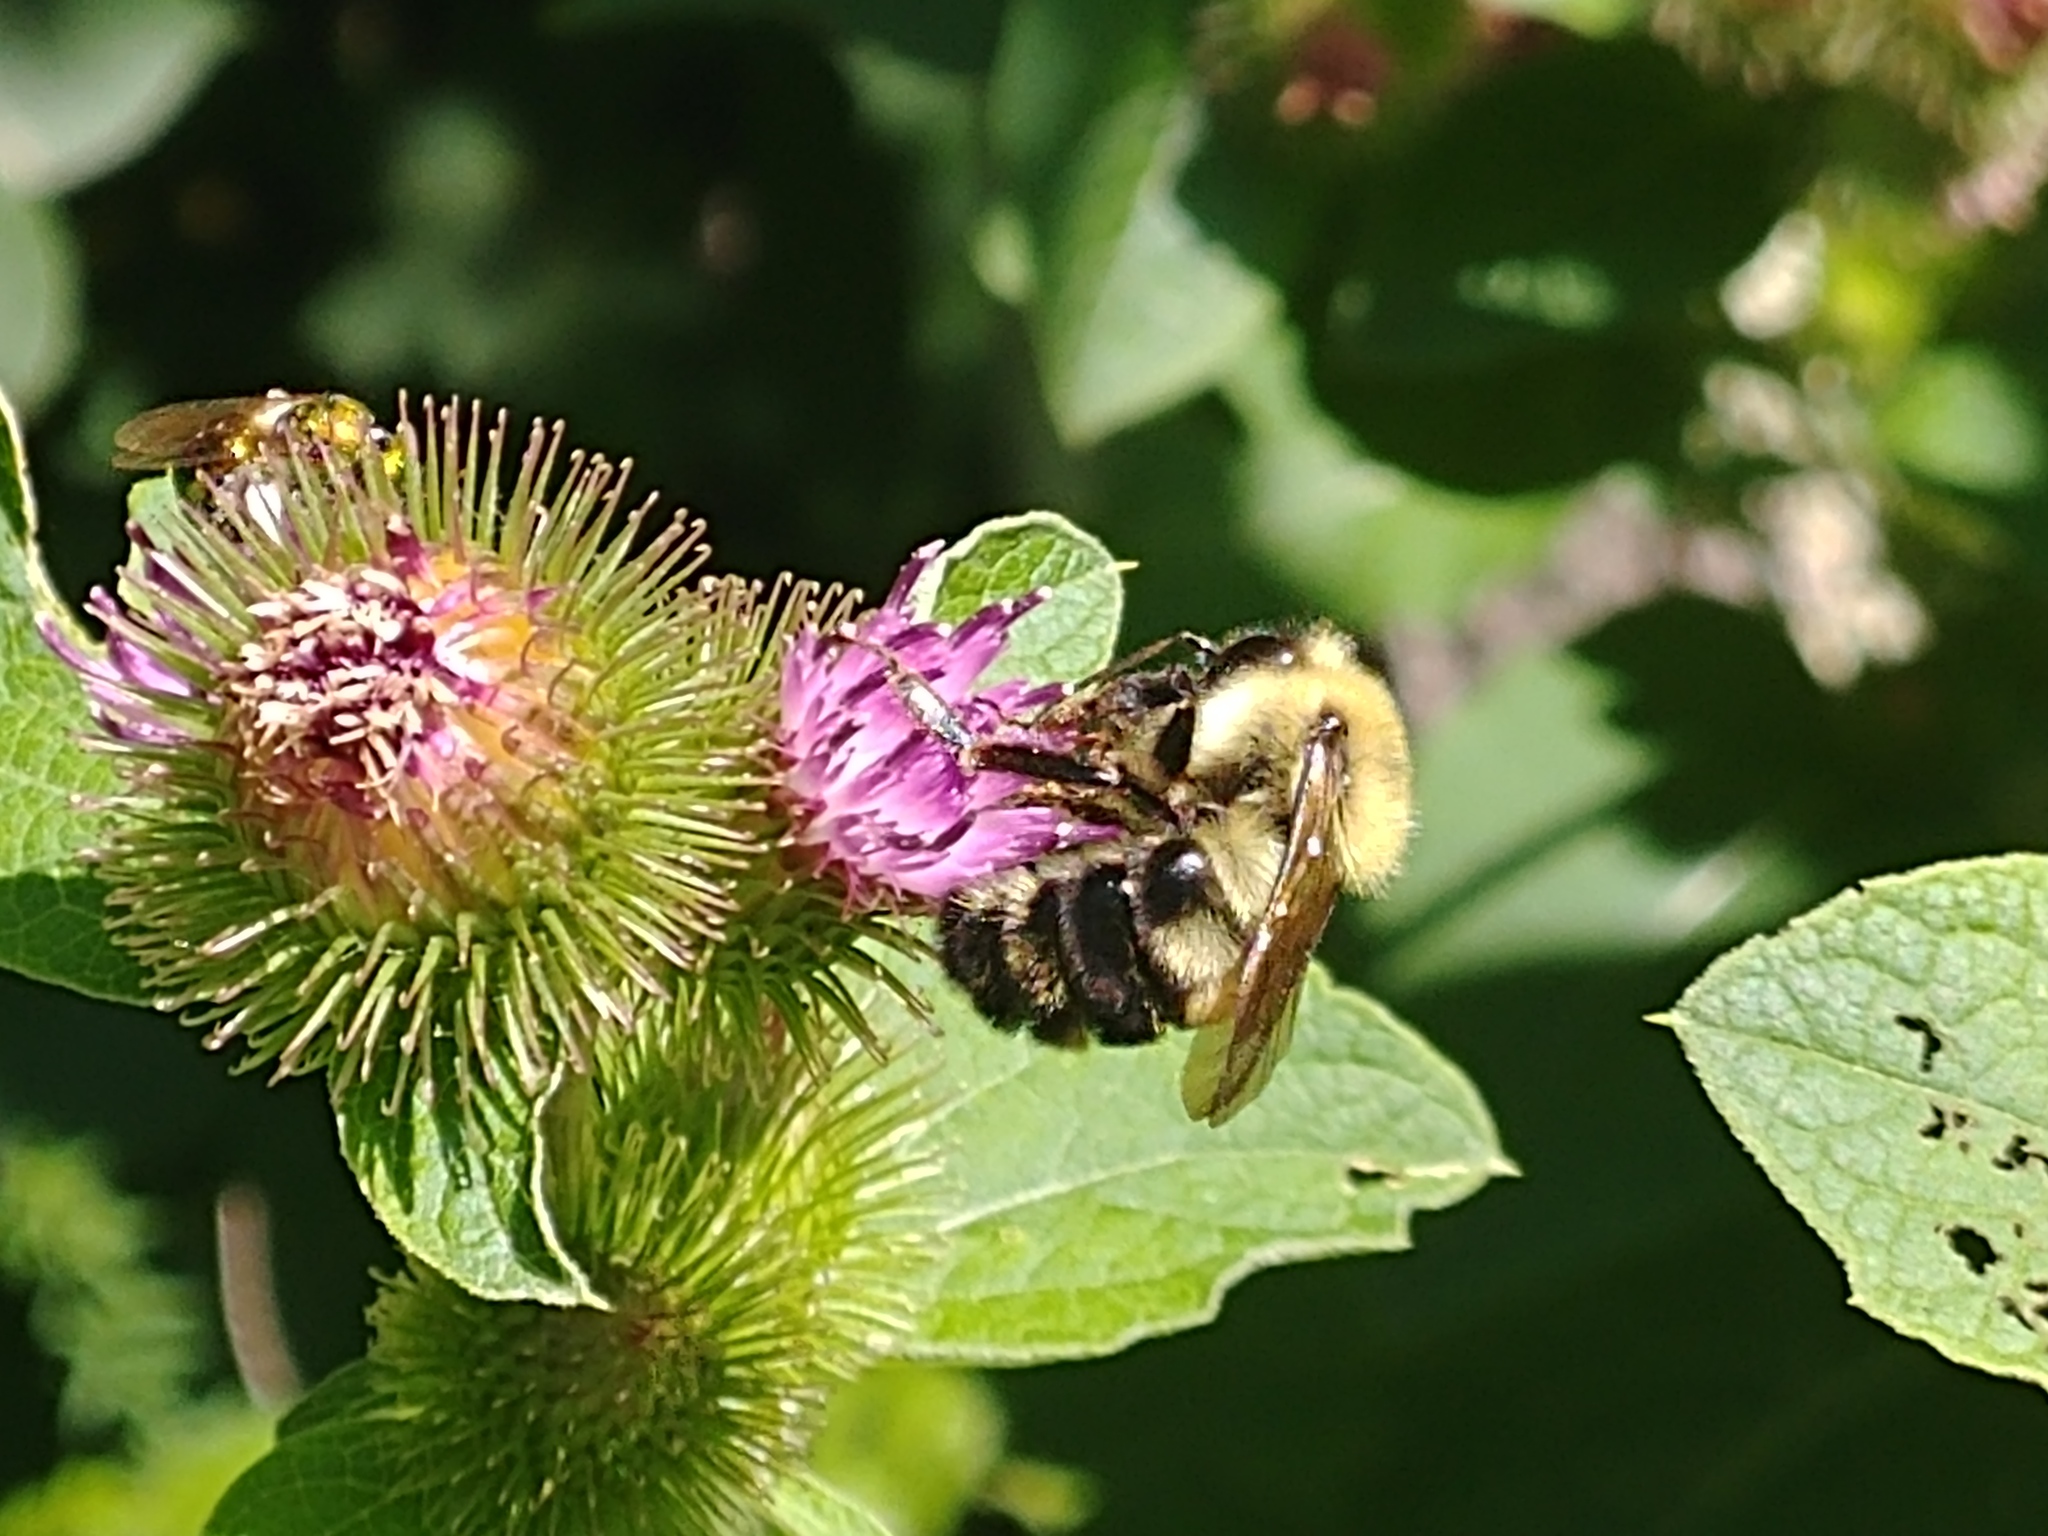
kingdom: Animalia
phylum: Arthropoda
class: Insecta
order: Hymenoptera
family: Apidae
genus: Bombus
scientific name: Bombus bimaculatus
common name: Two-spotted bumble bee
